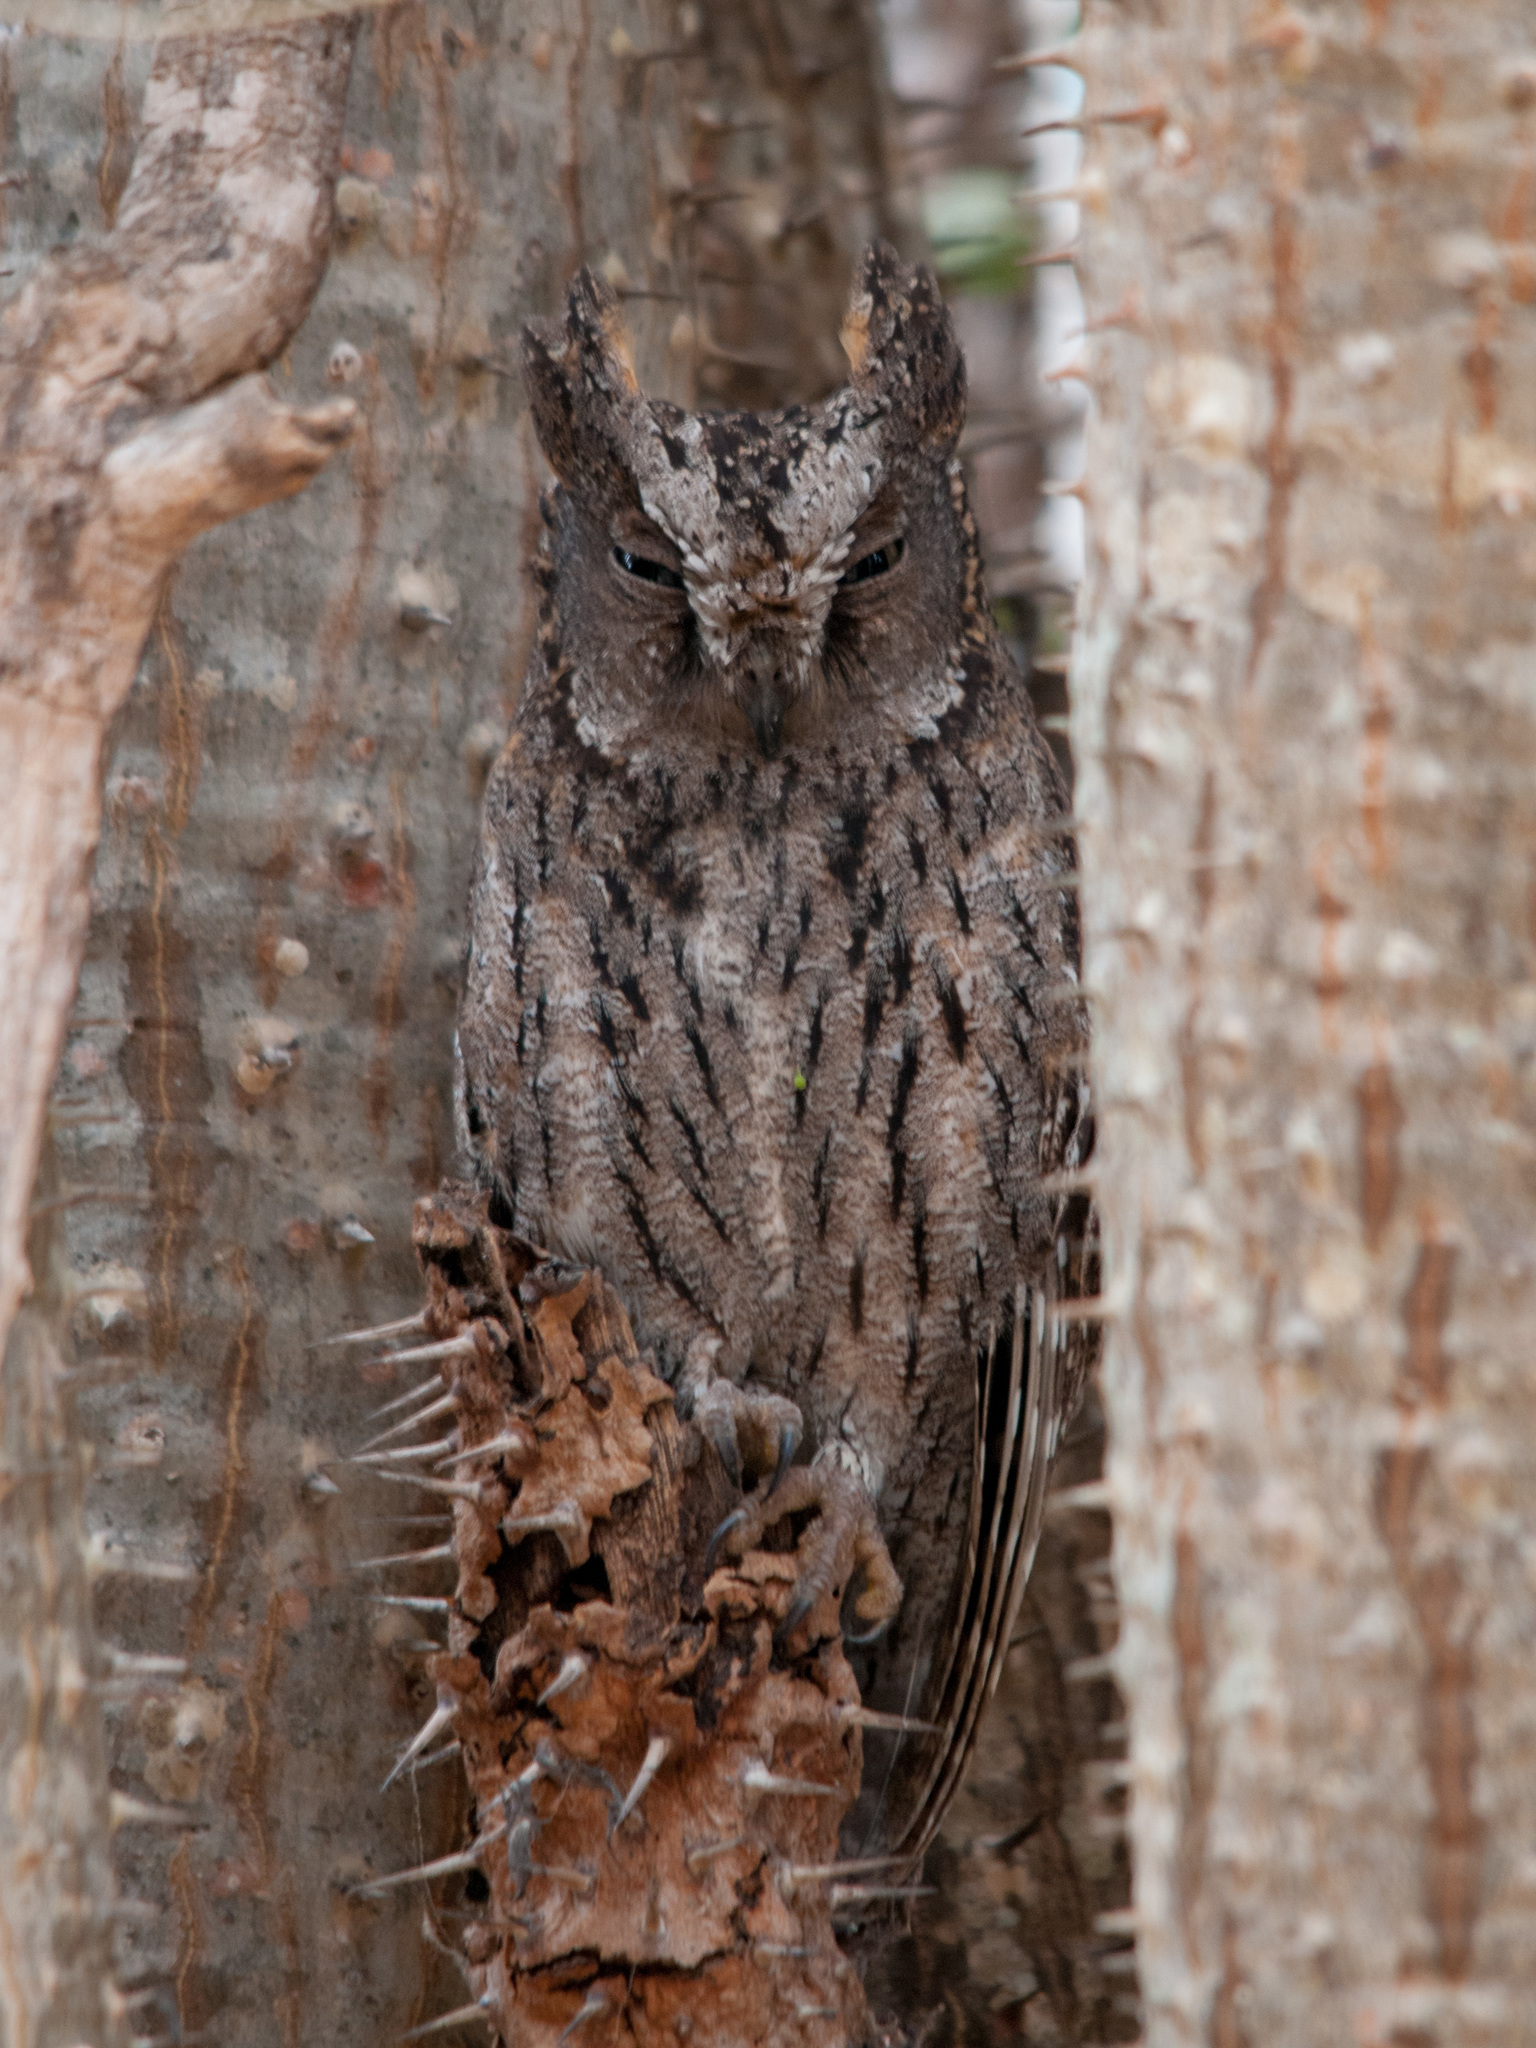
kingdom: Animalia
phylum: Chordata
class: Aves
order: Strigiformes
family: Strigidae
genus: Otus
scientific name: Otus rutilus
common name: Rainforest scops owl
